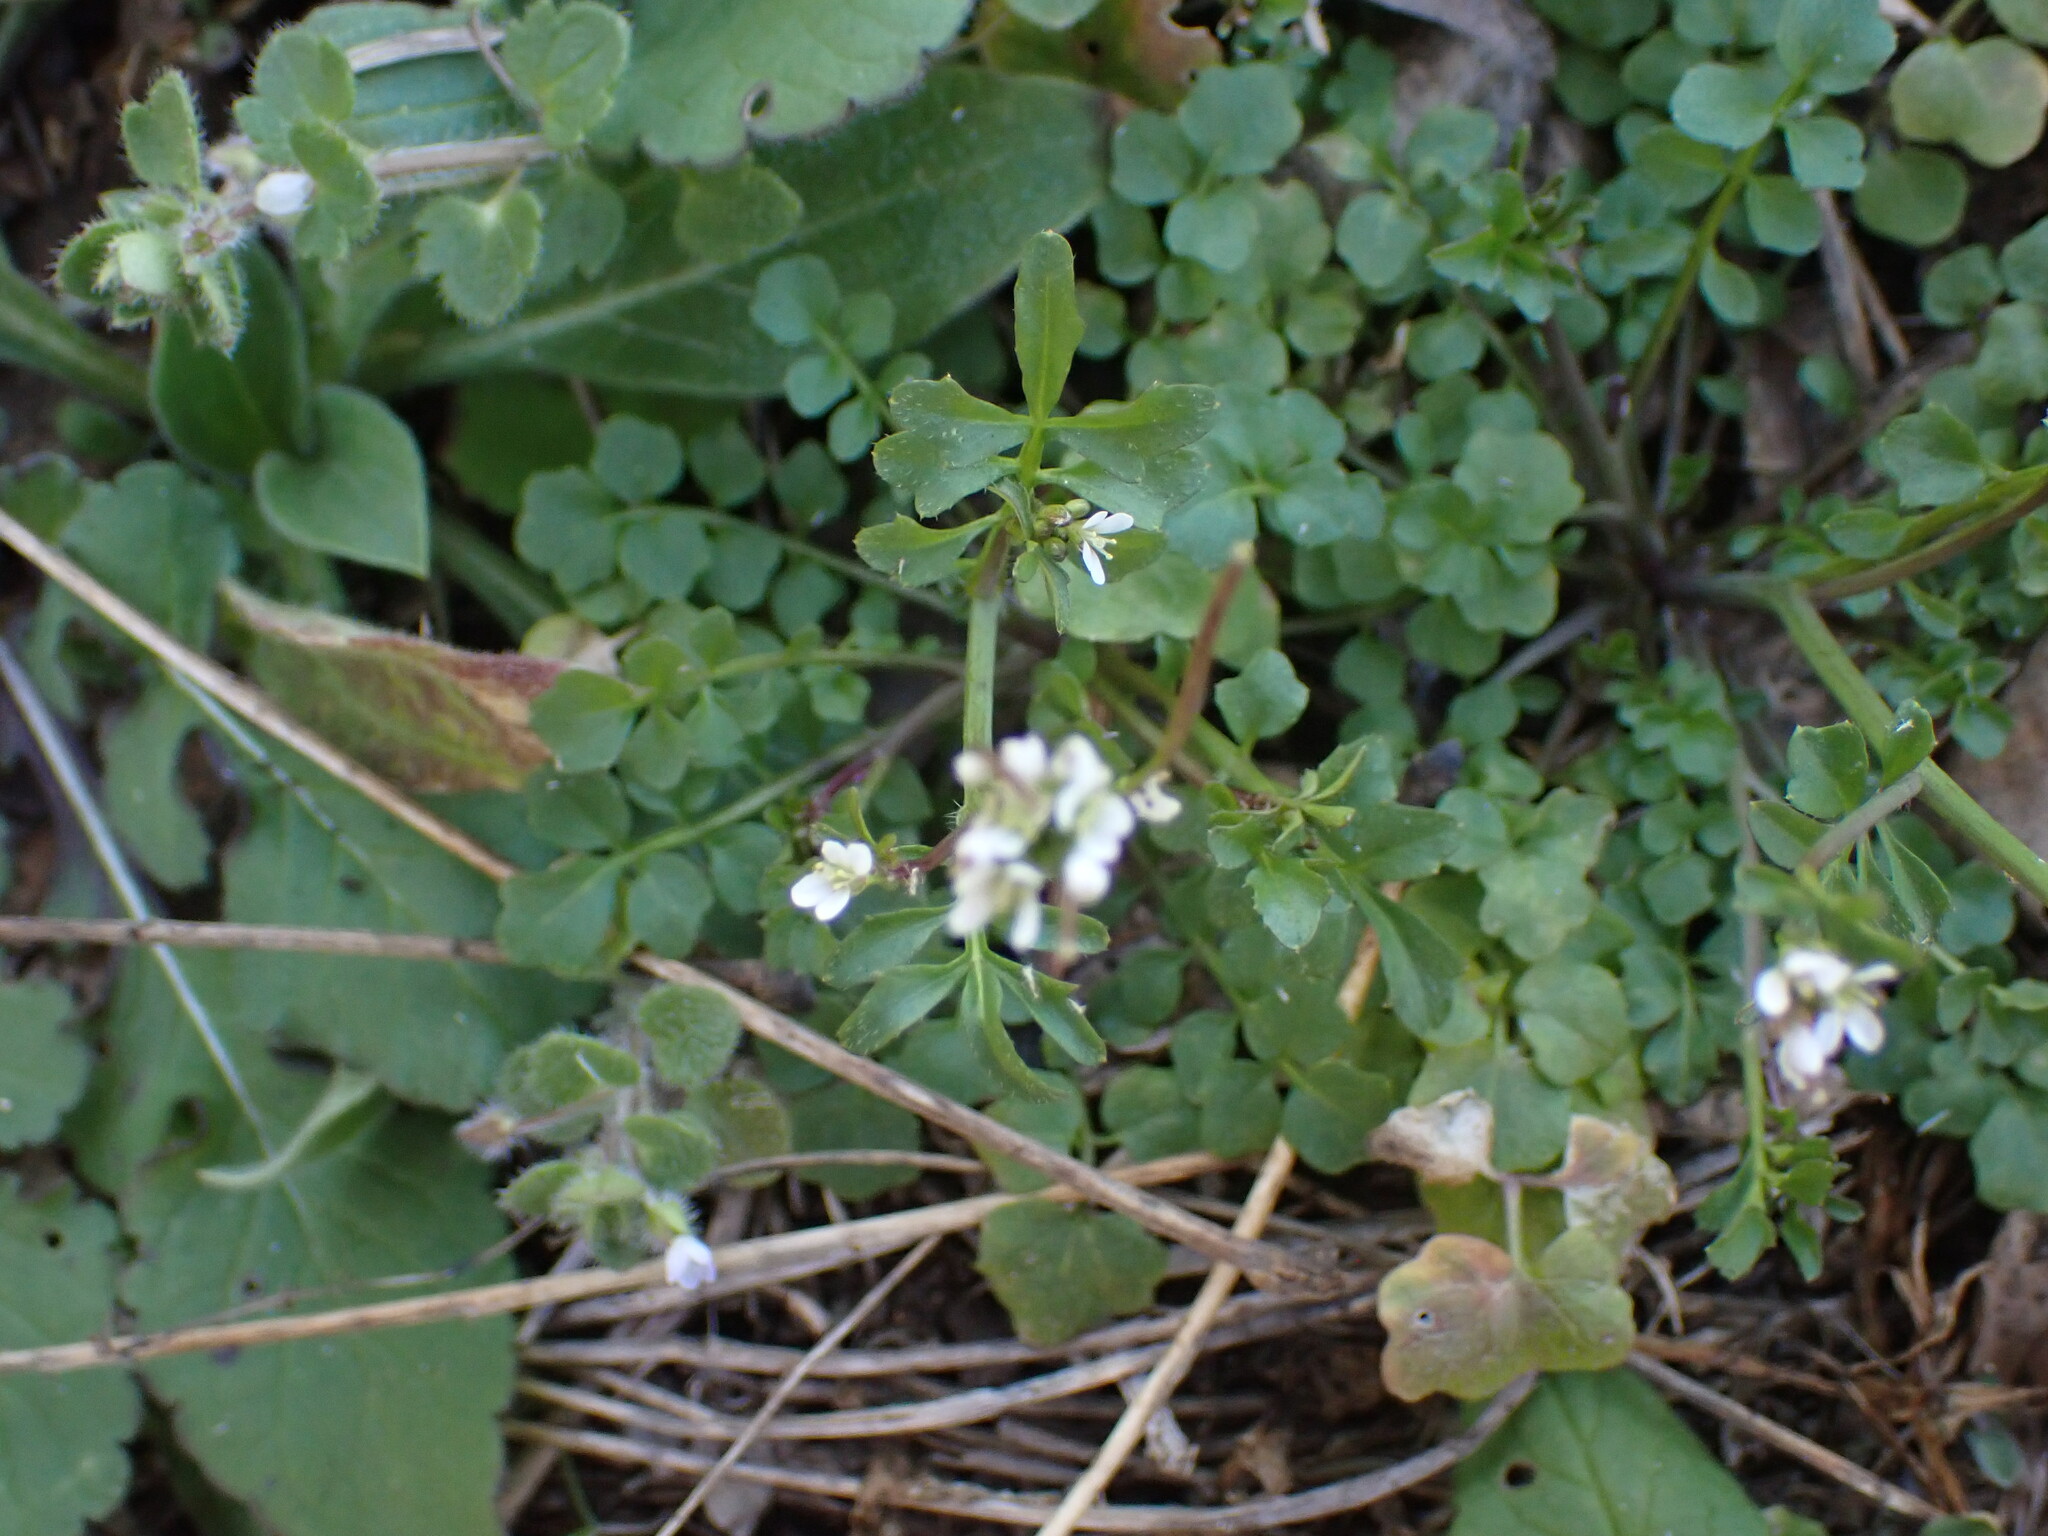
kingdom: Plantae
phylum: Tracheophyta
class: Magnoliopsida
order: Brassicales
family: Brassicaceae
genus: Cardamine
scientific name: Cardamine hirsuta
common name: Hairy bittercress
